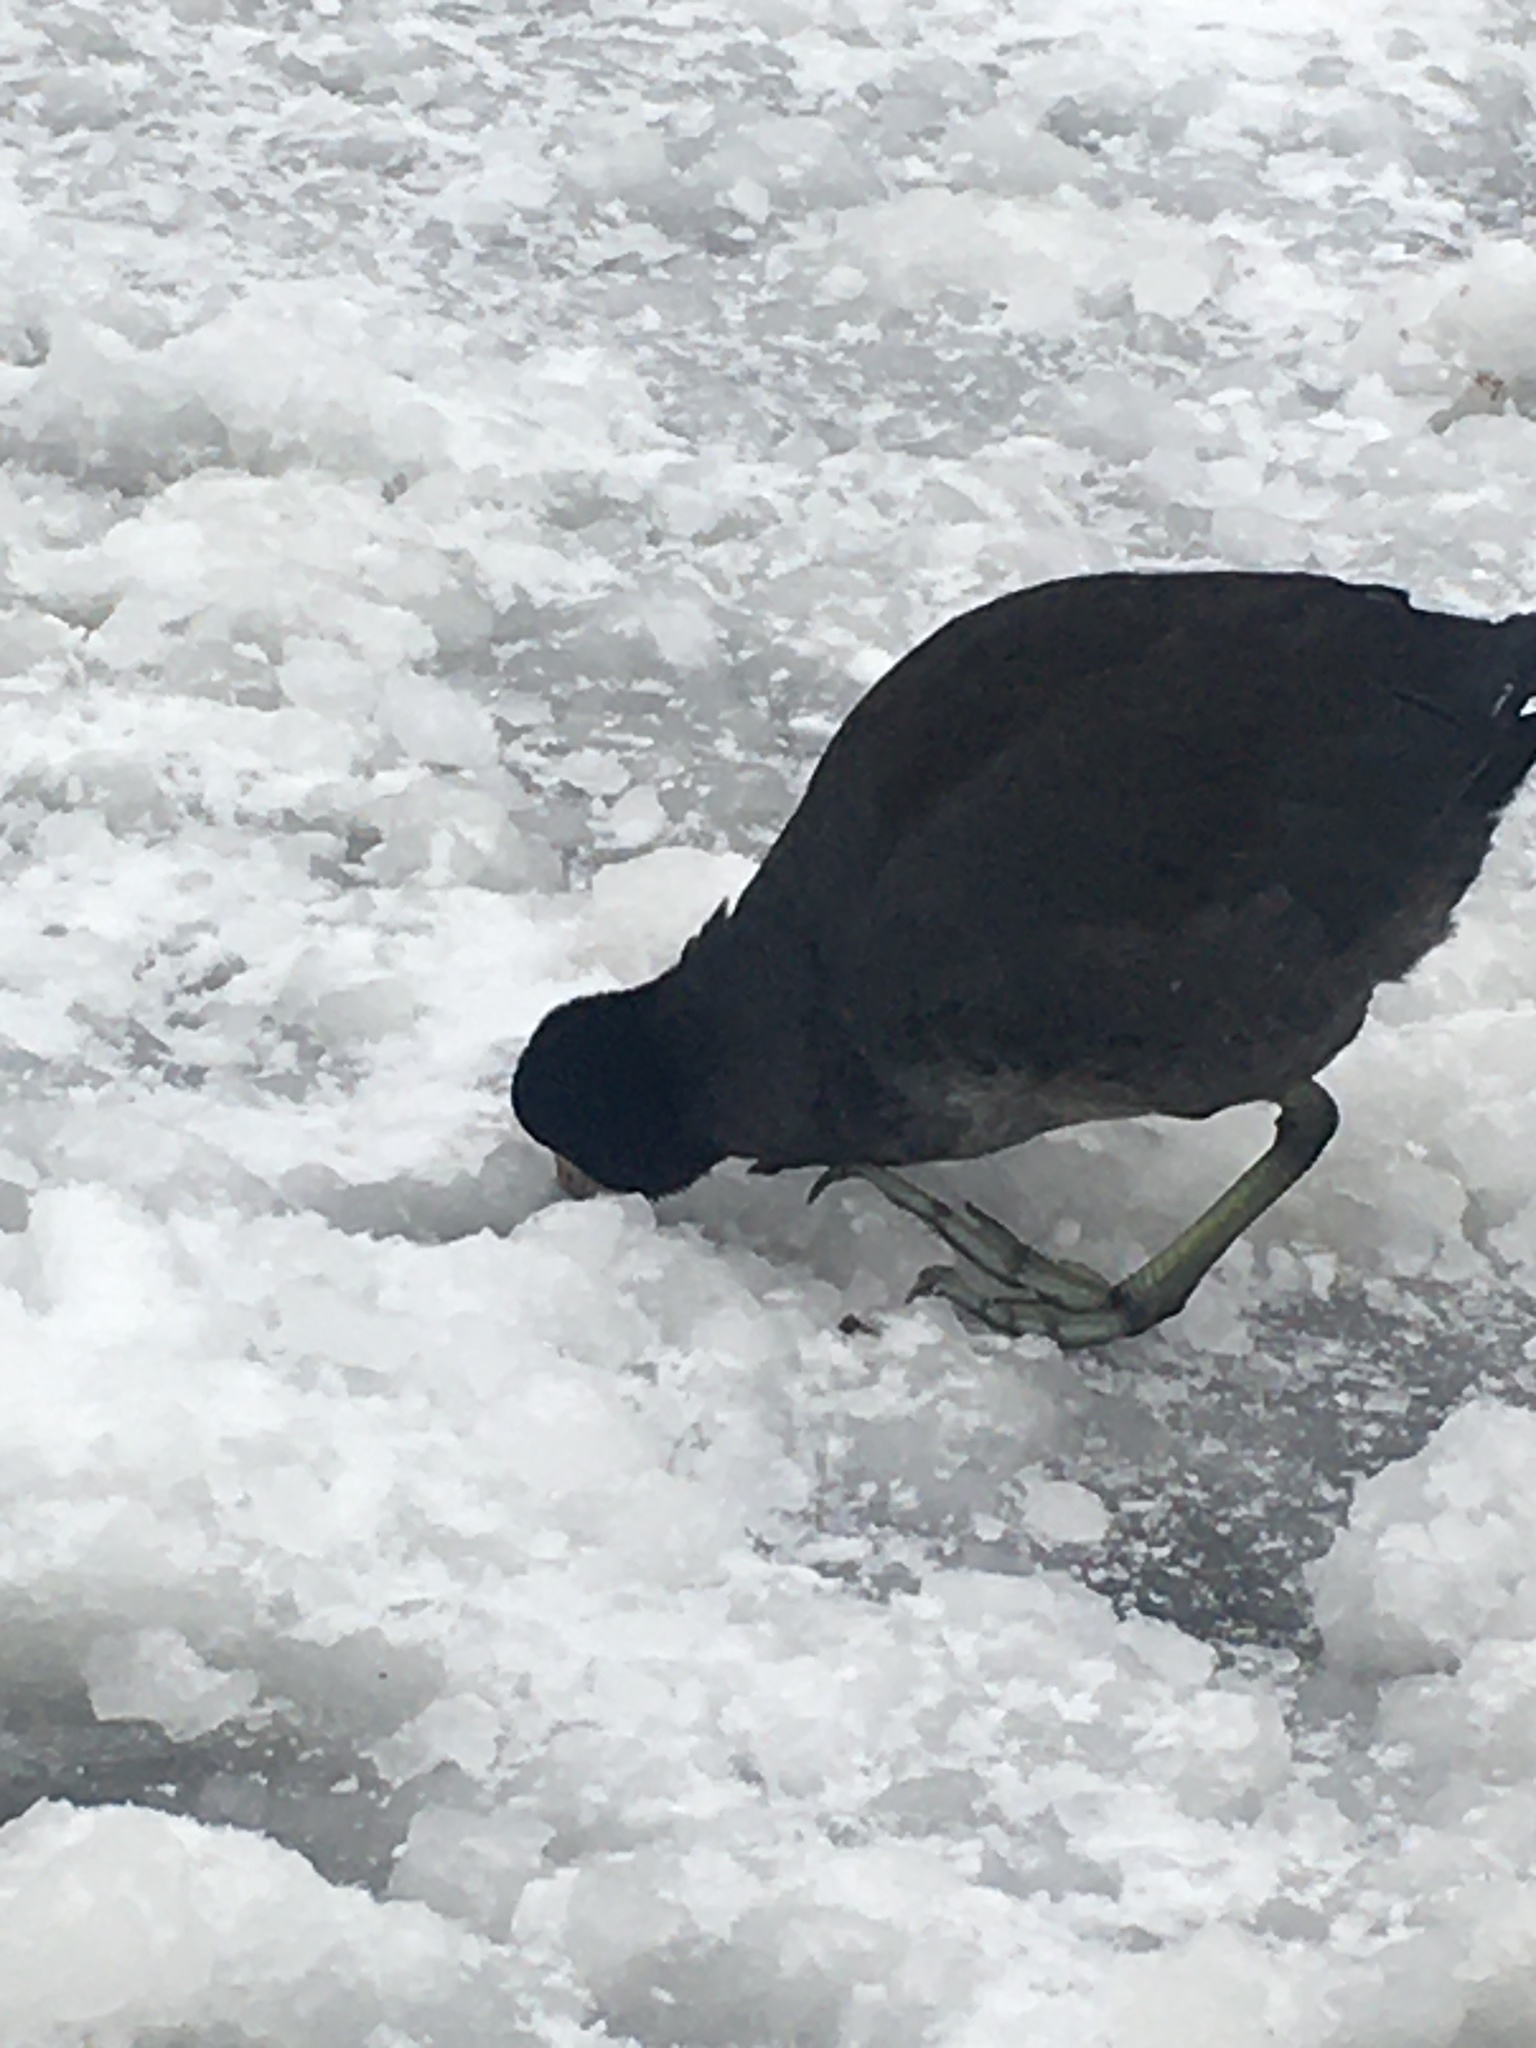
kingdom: Animalia
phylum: Chordata
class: Aves
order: Gruiformes
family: Rallidae
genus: Fulica
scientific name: Fulica americana
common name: American coot
